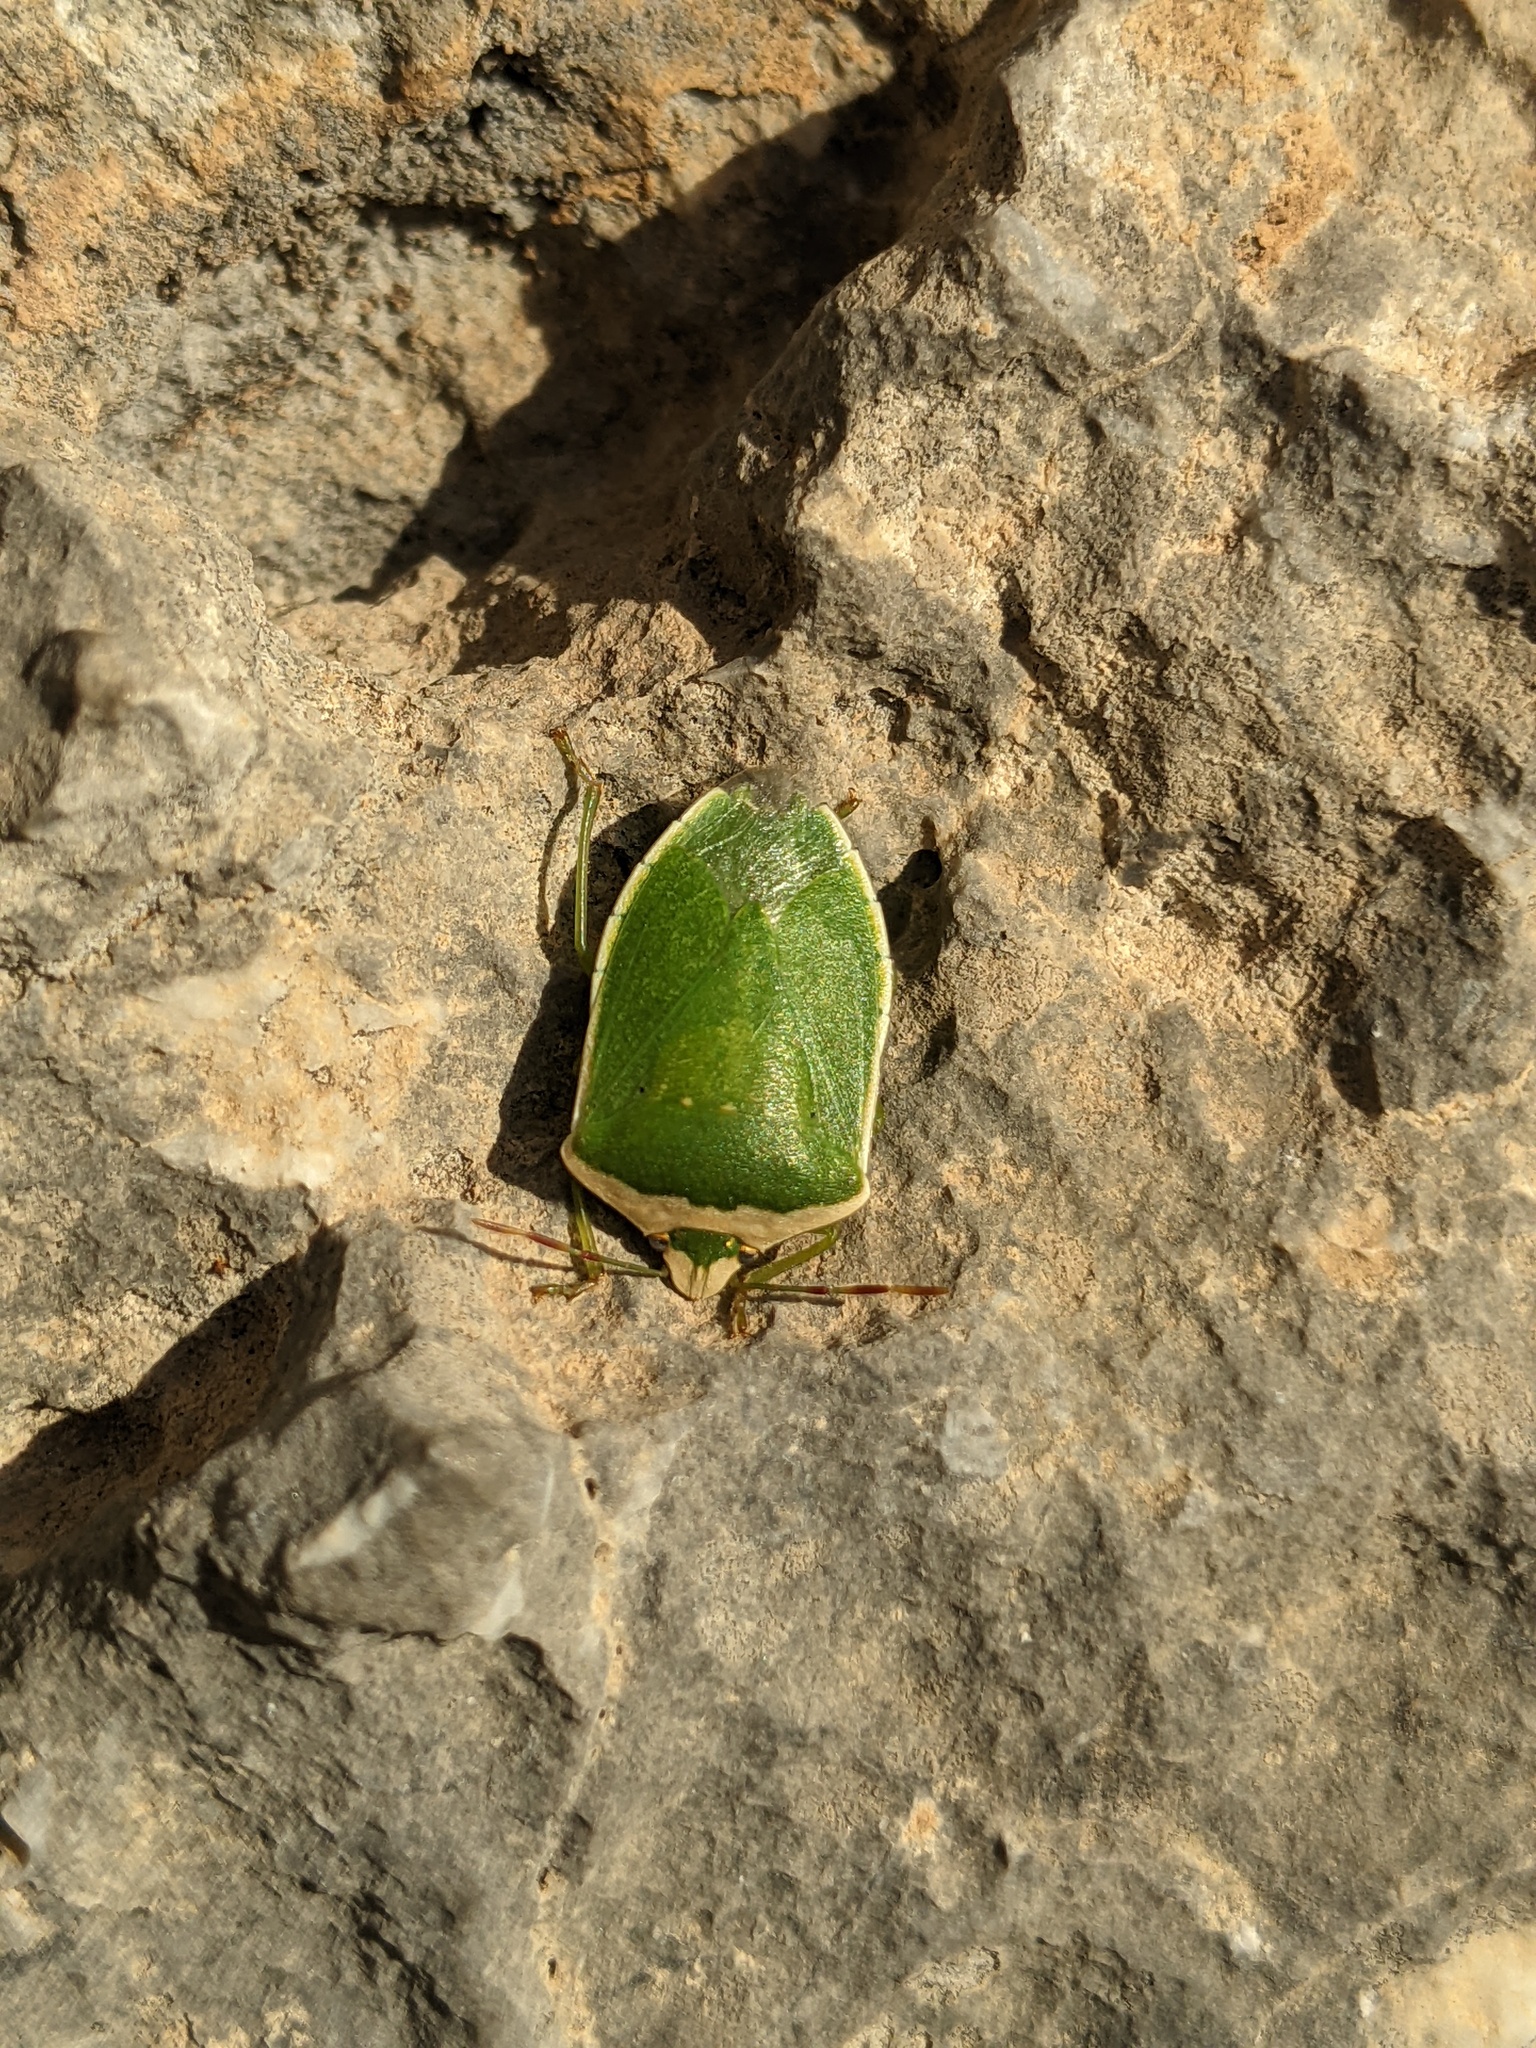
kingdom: Animalia
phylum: Arthropoda
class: Insecta
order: Hemiptera
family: Pentatomidae
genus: Nezara
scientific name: Nezara viridula
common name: Southern green stink bug
